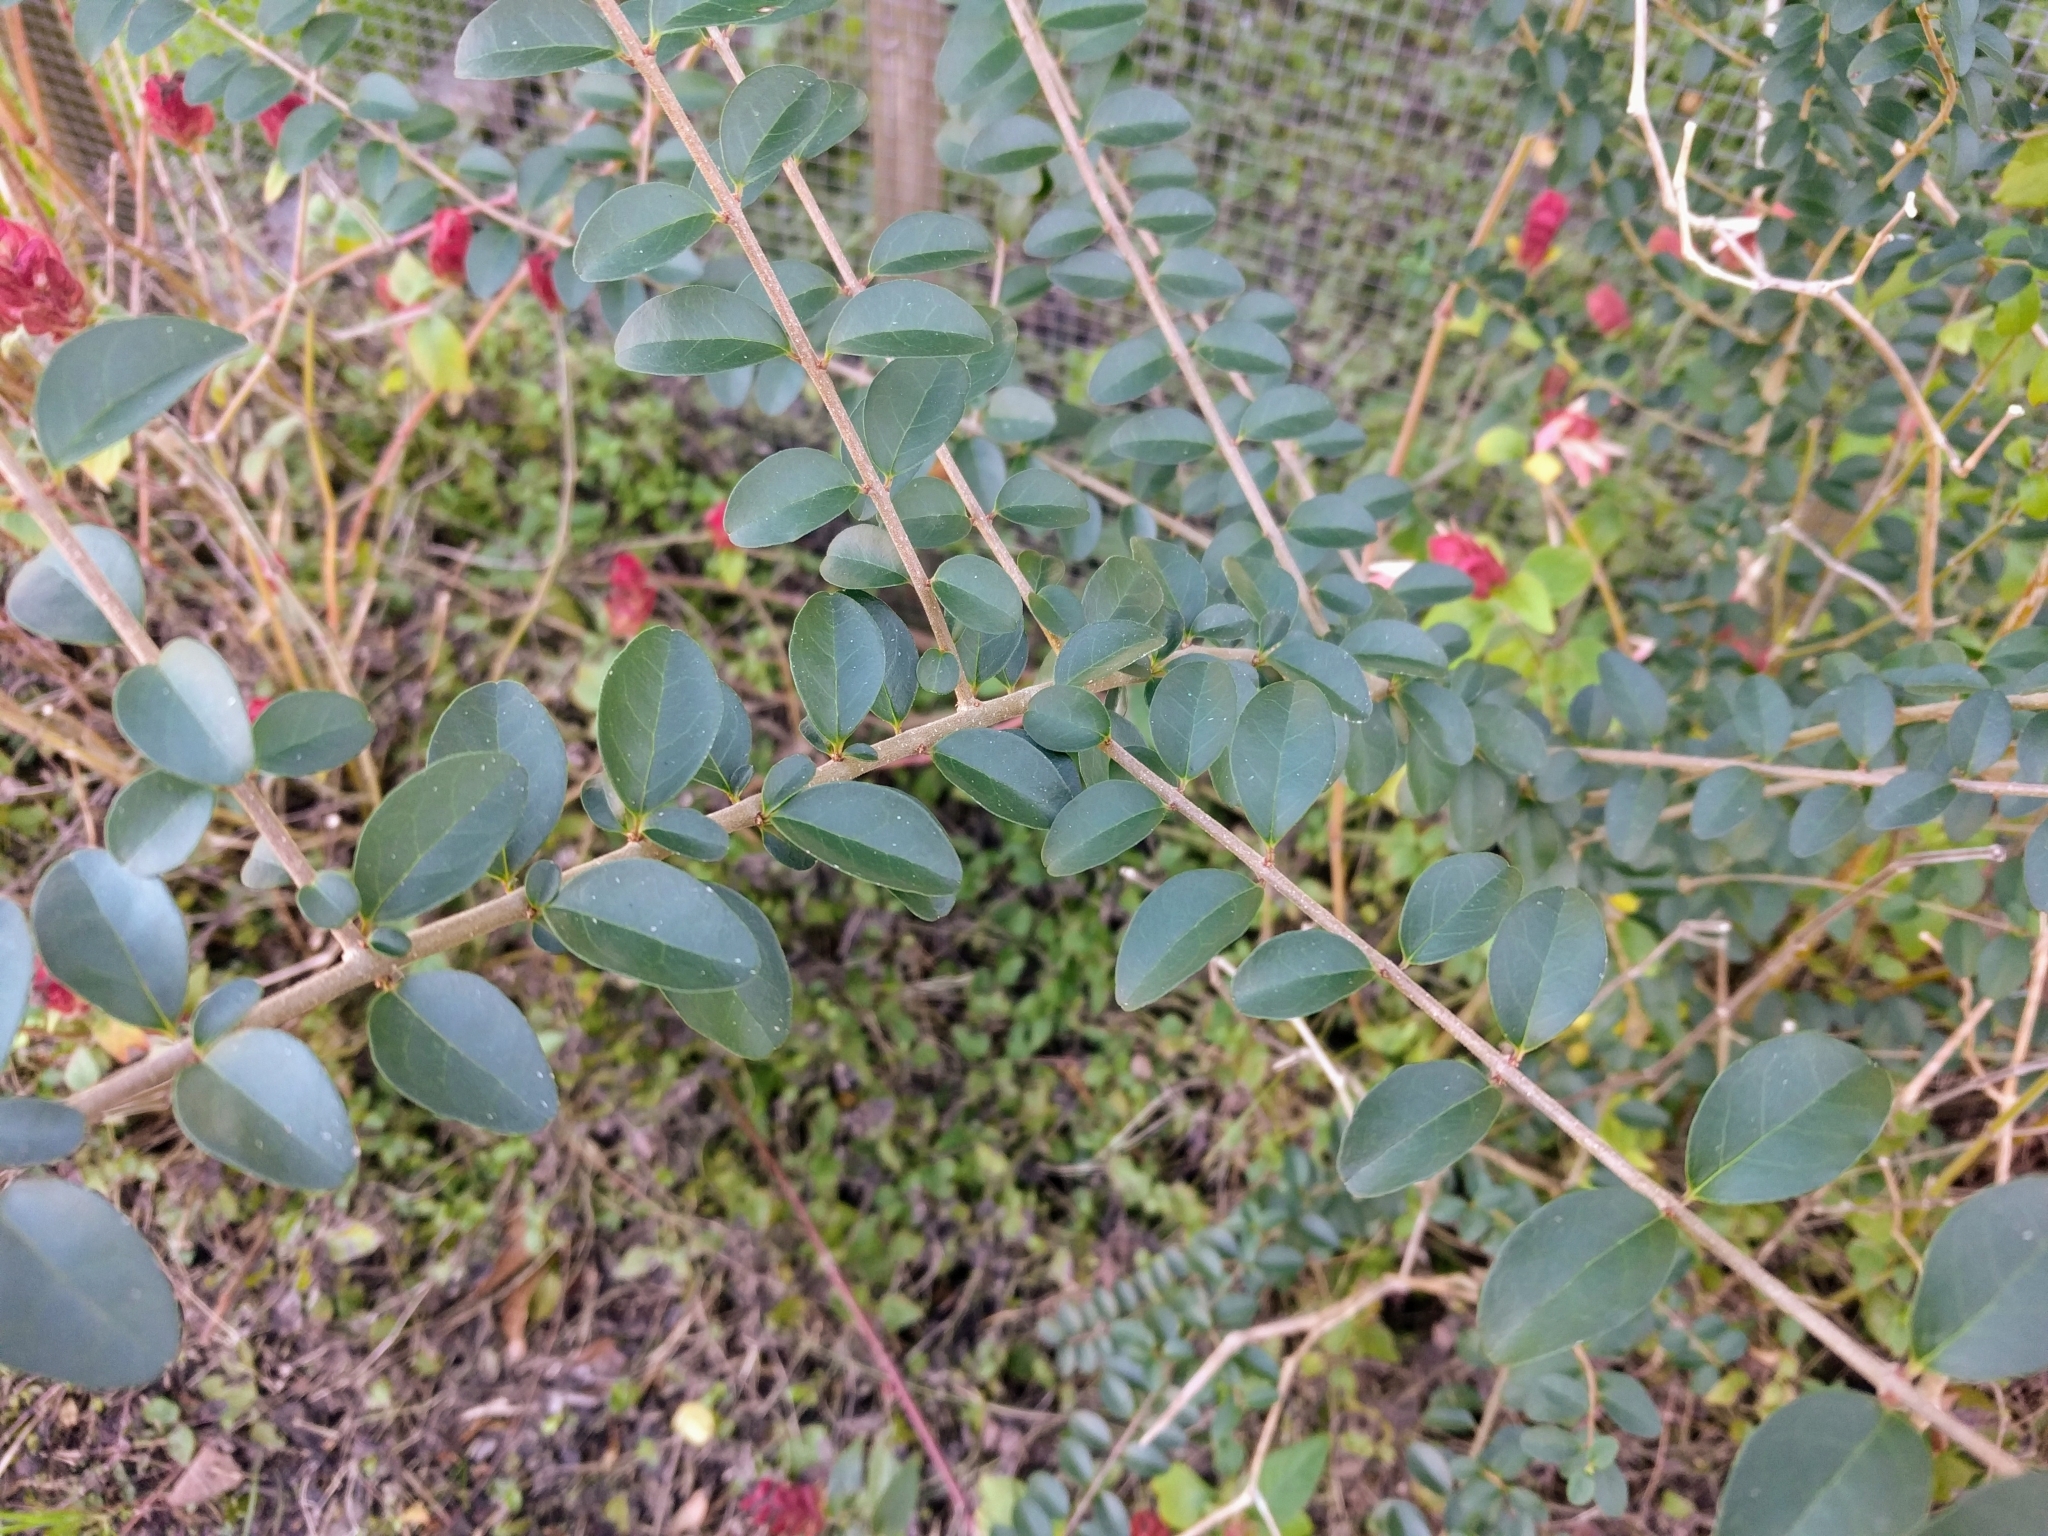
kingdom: Plantae
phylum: Tracheophyta
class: Magnoliopsida
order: Lamiales
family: Oleaceae
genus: Ligustrum
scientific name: Ligustrum sinense
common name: Chinese privet
